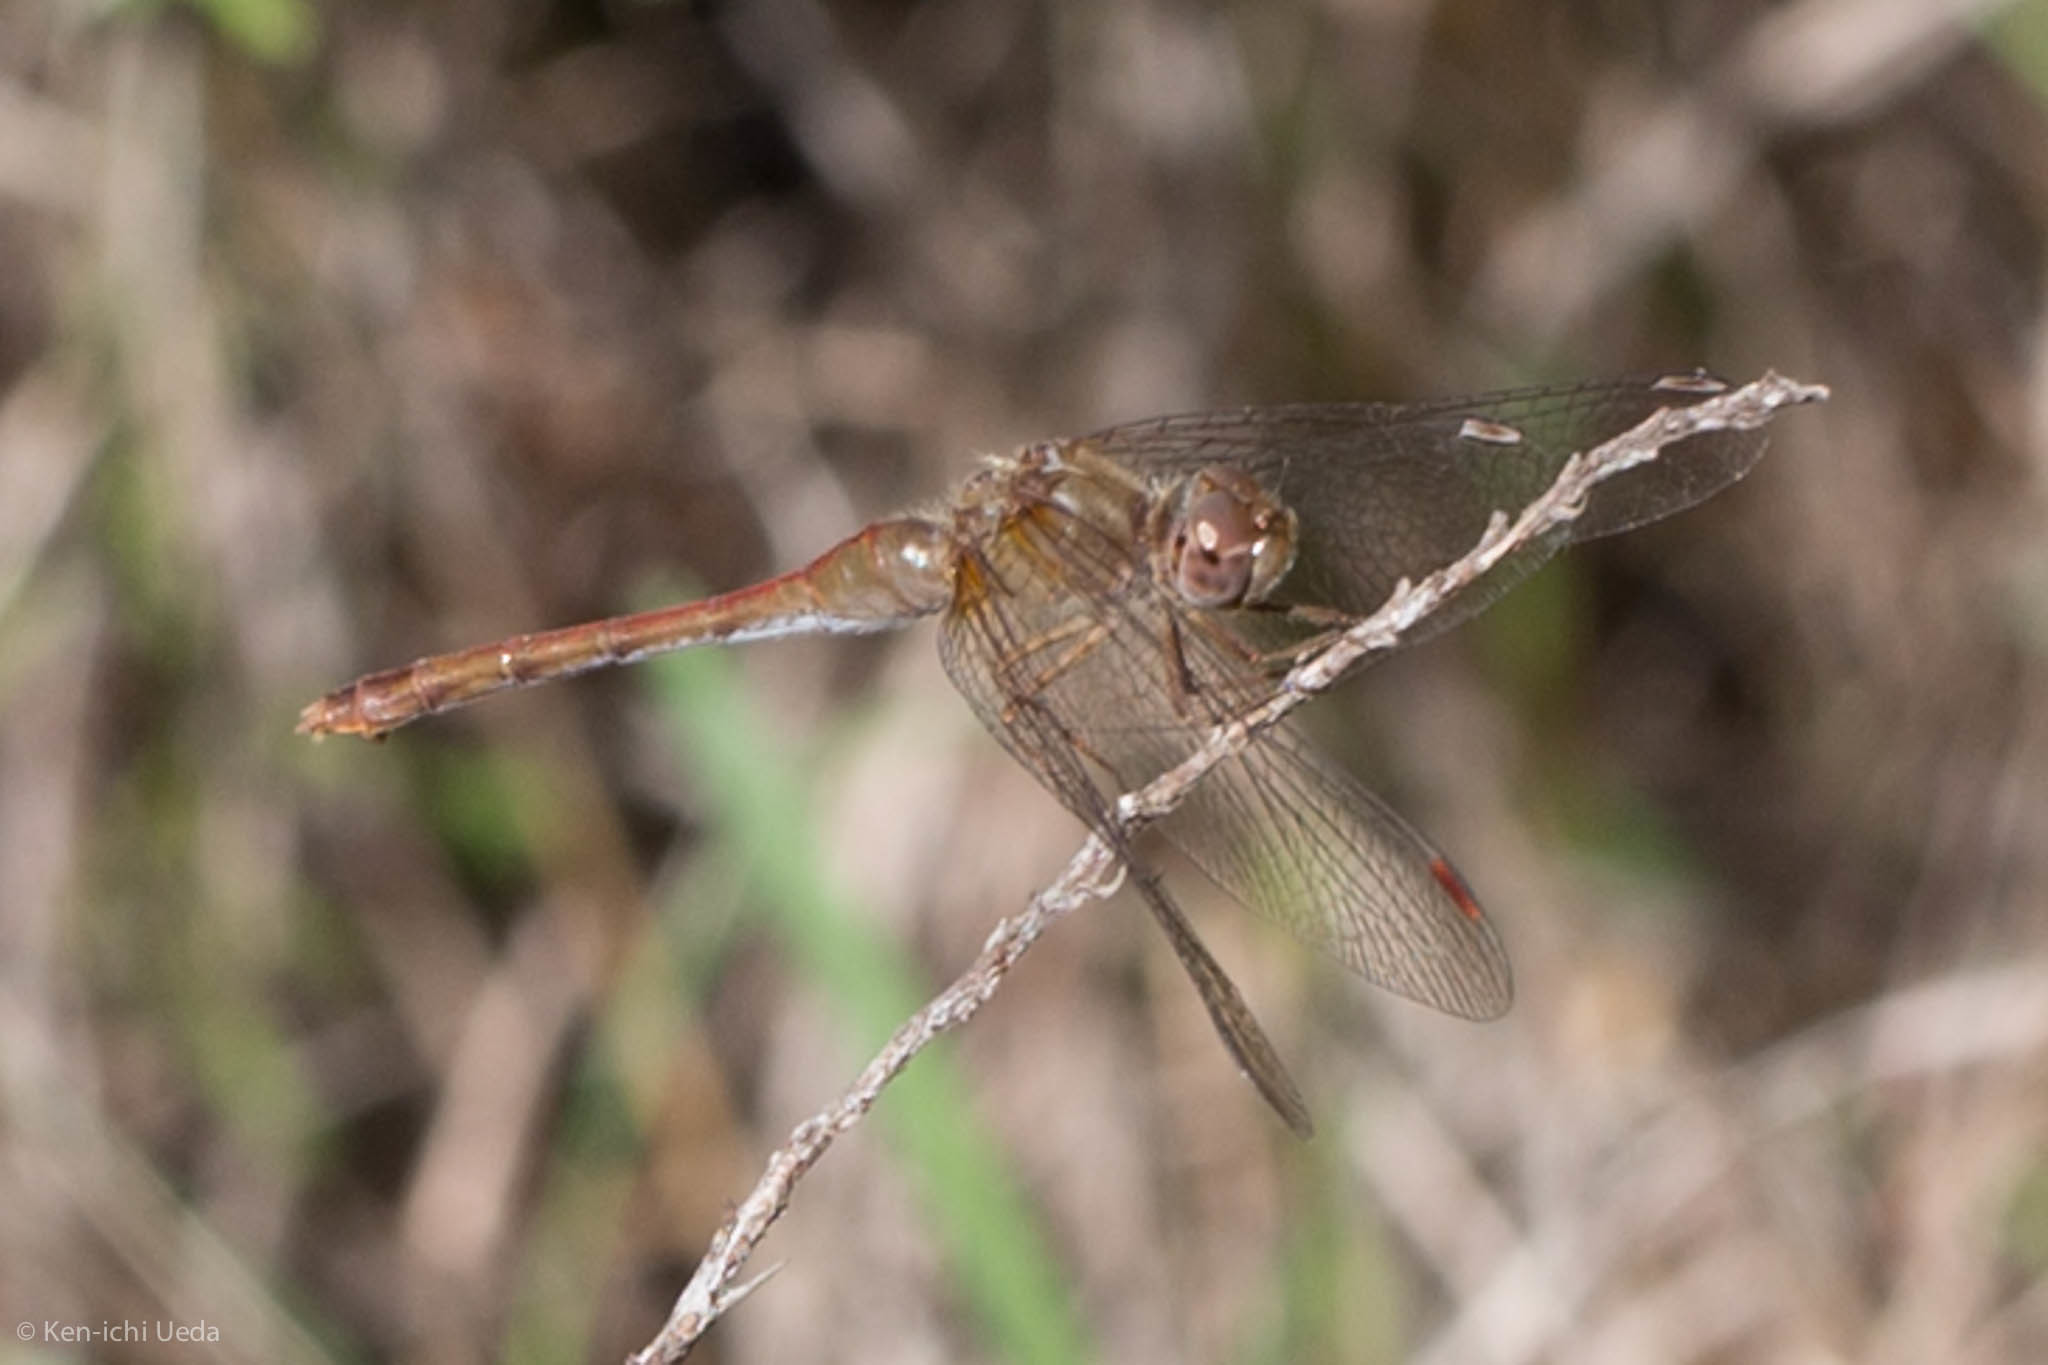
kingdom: Animalia
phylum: Arthropoda
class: Insecta
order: Odonata
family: Libellulidae
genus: Sympetrum
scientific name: Sympetrum vicinum
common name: Autumn meadowhawk
